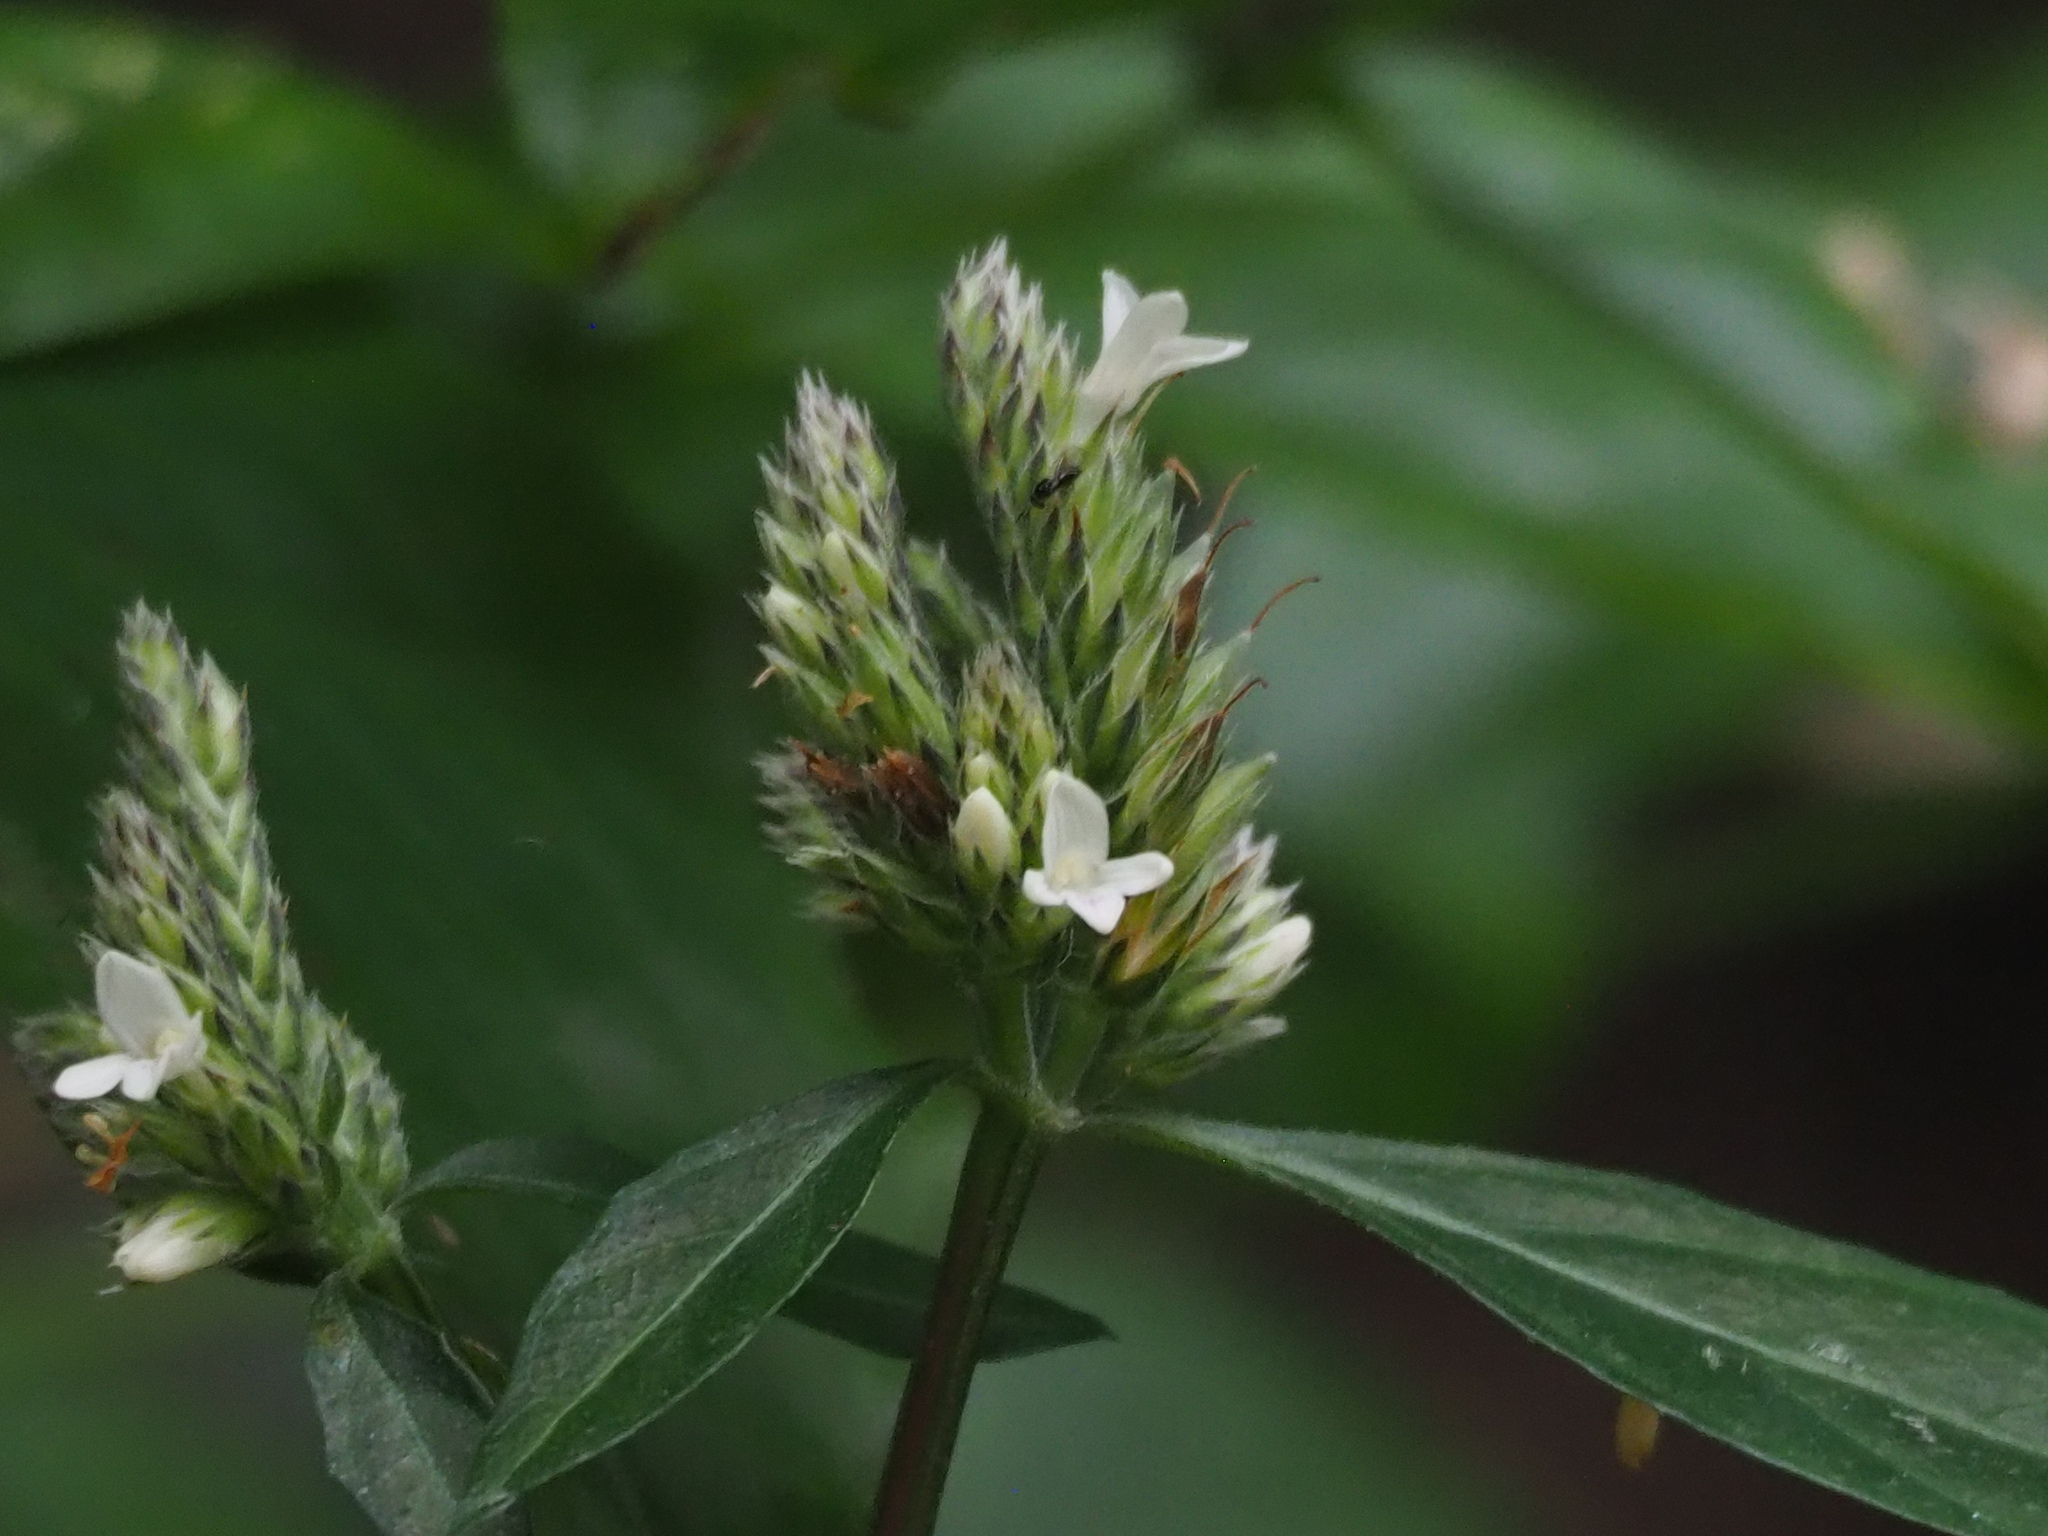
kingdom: Plantae
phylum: Tracheophyta
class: Magnoliopsida
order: Lamiales
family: Acanthaceae
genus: Lepidagathis
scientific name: Lepidagathis formosensis
